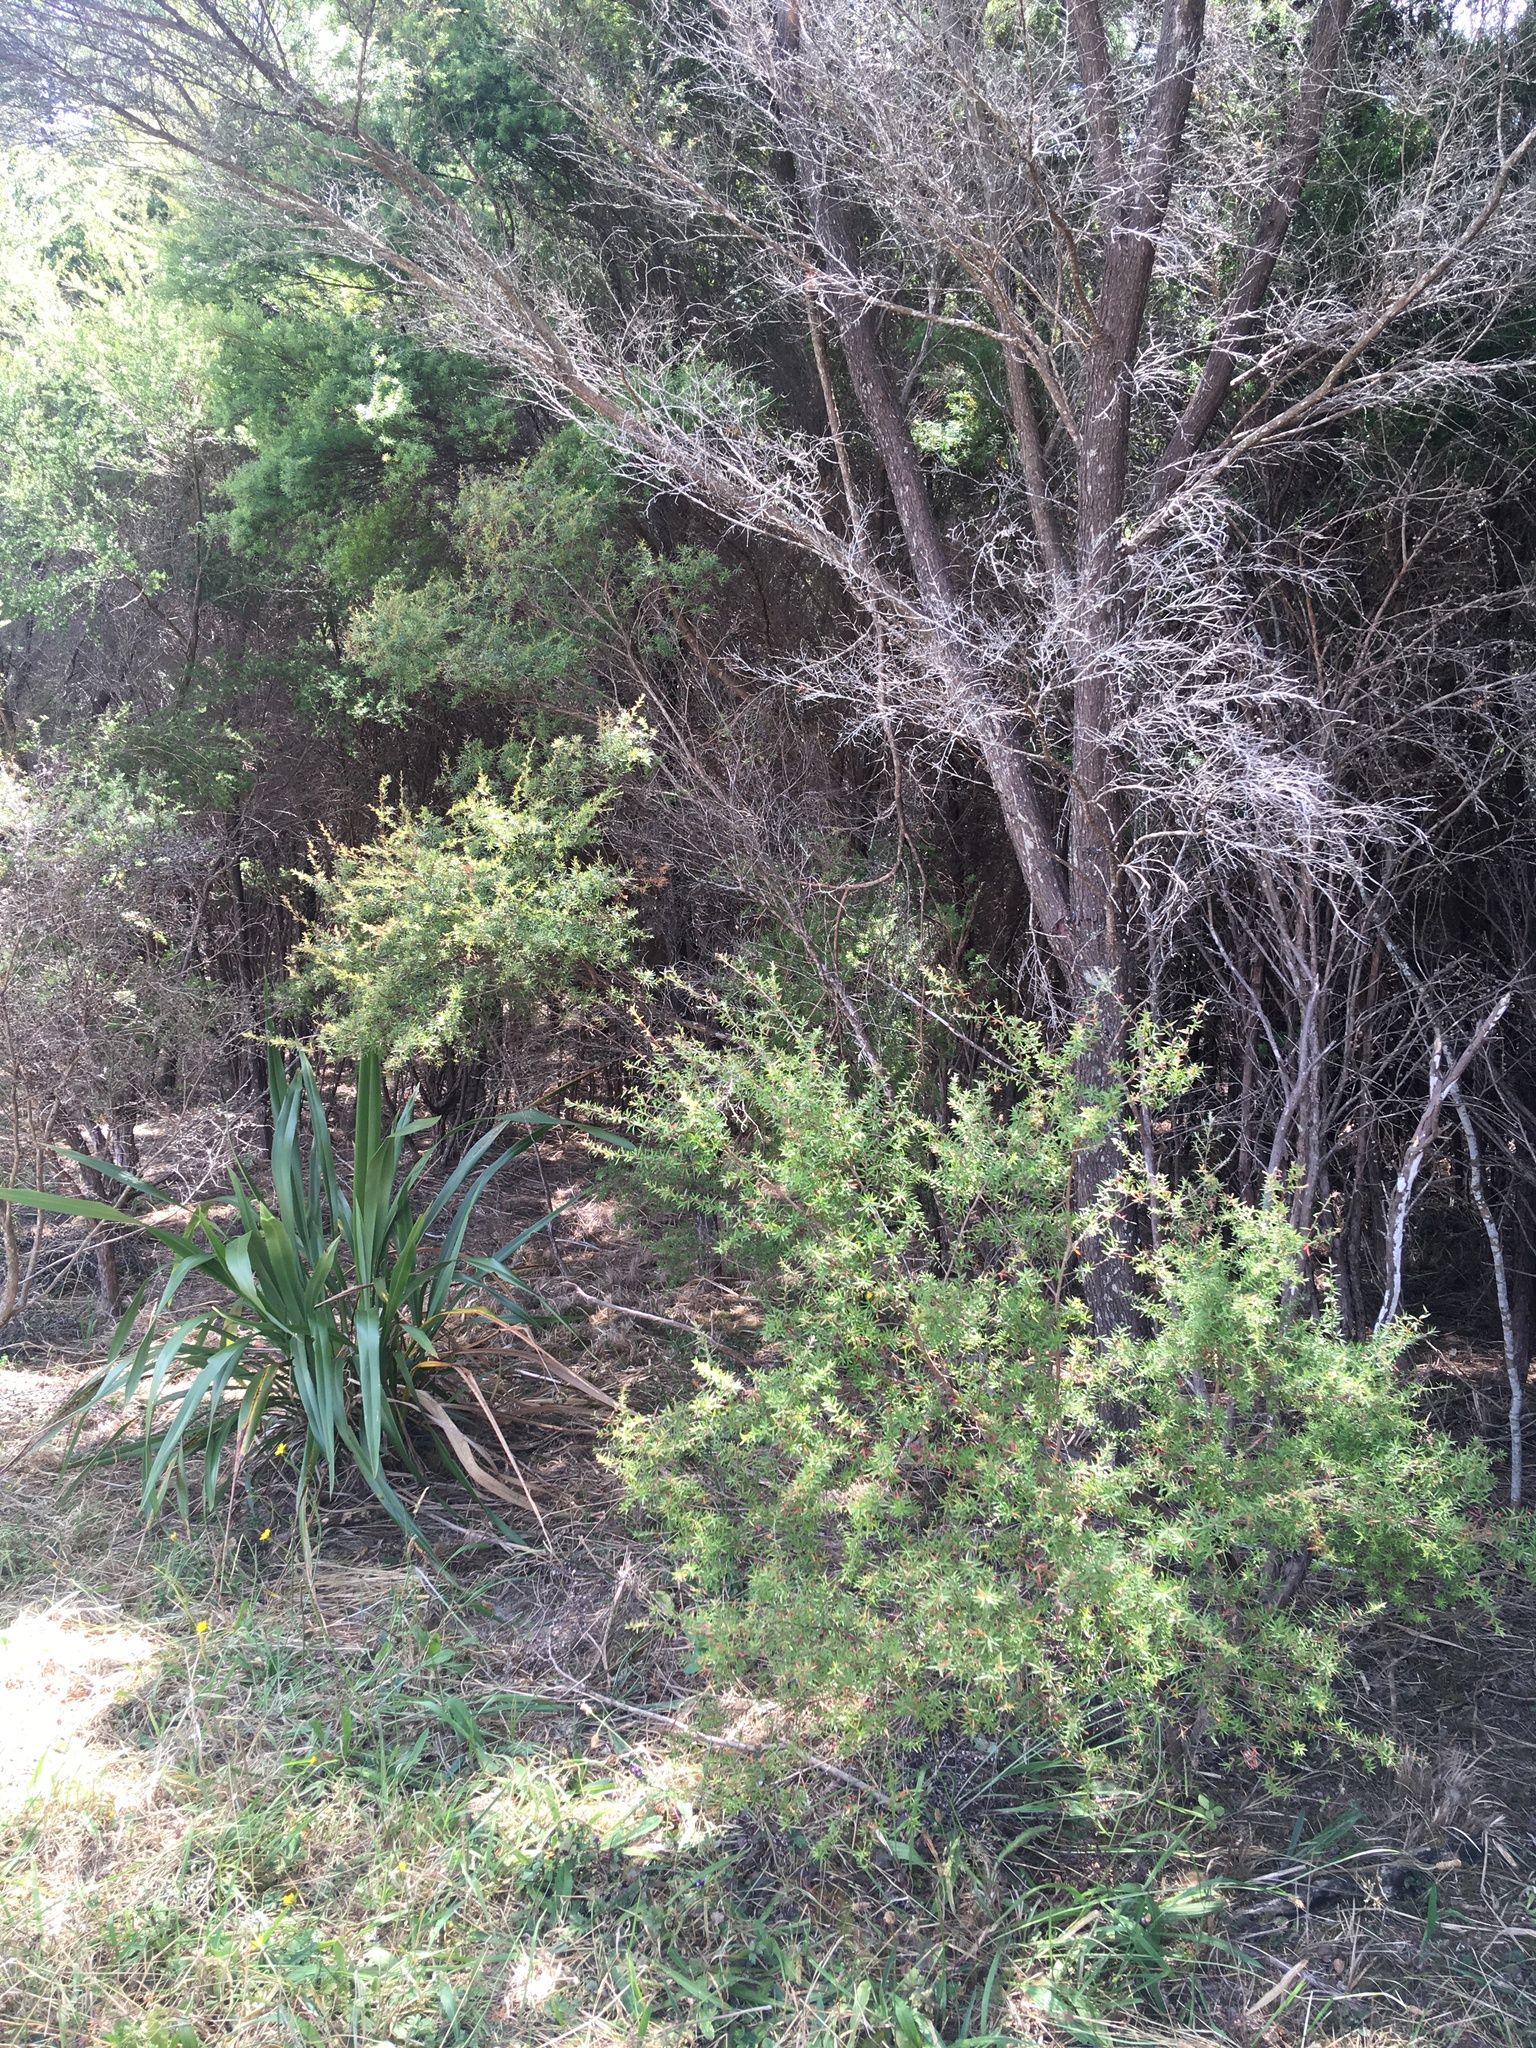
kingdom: Plantae
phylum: Tracheophyta
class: Magnoliopsida
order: Myrtales
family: Myrtaceae
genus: Kunzea
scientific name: Kunzea robusta
